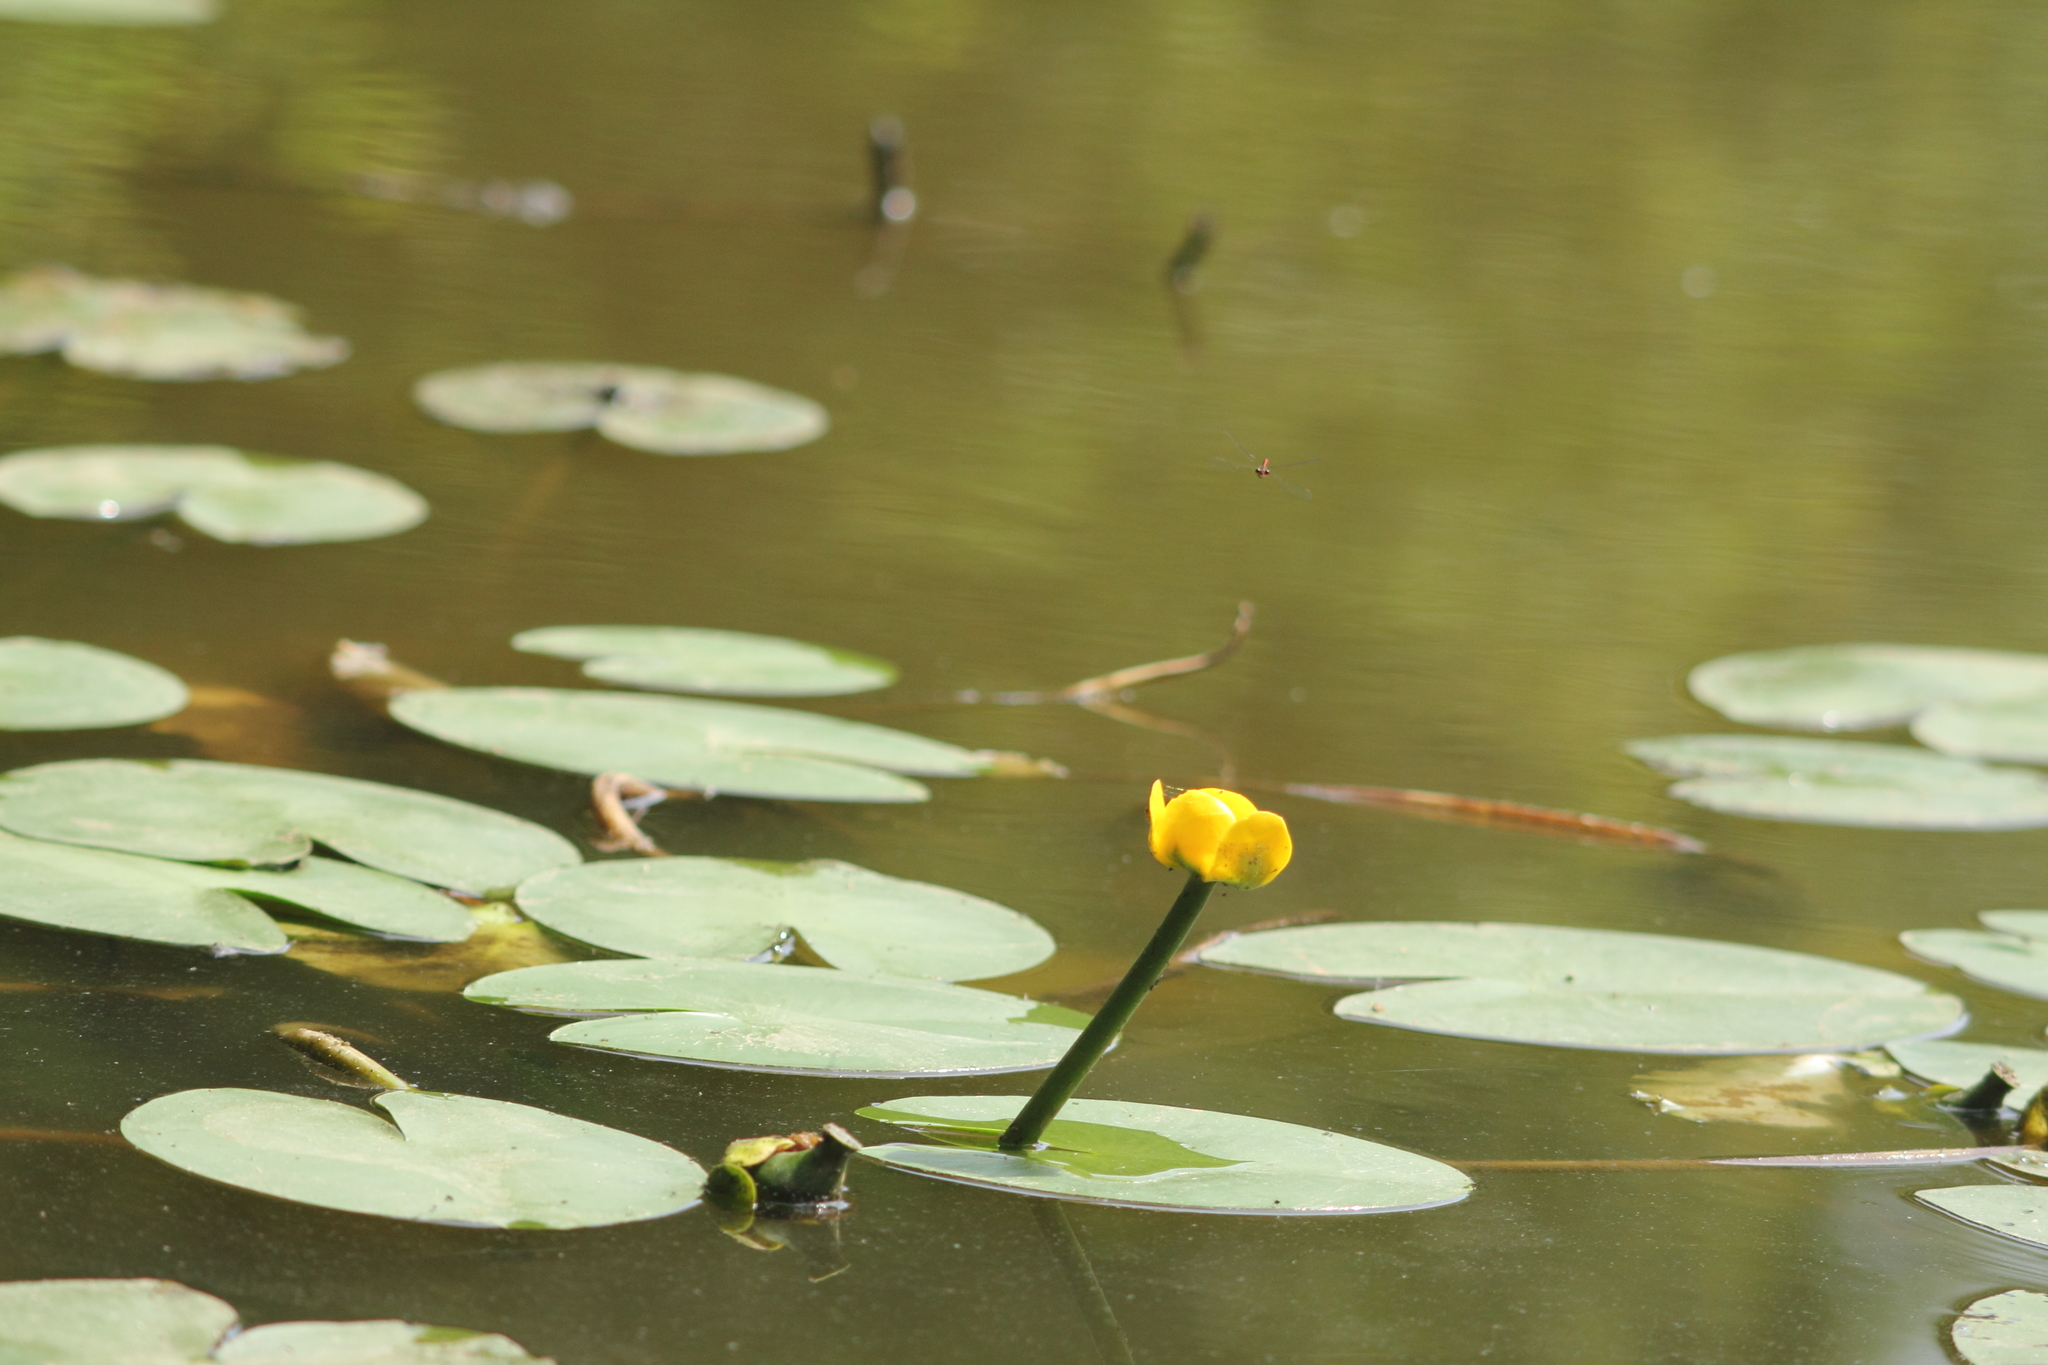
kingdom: Plantae
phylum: Tracheophyta
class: Magnoliopsida
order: Nymphaeales
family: Nymphaeaceae
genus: Nuphar
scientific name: Nuphar lutea
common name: Yellow water-lily
